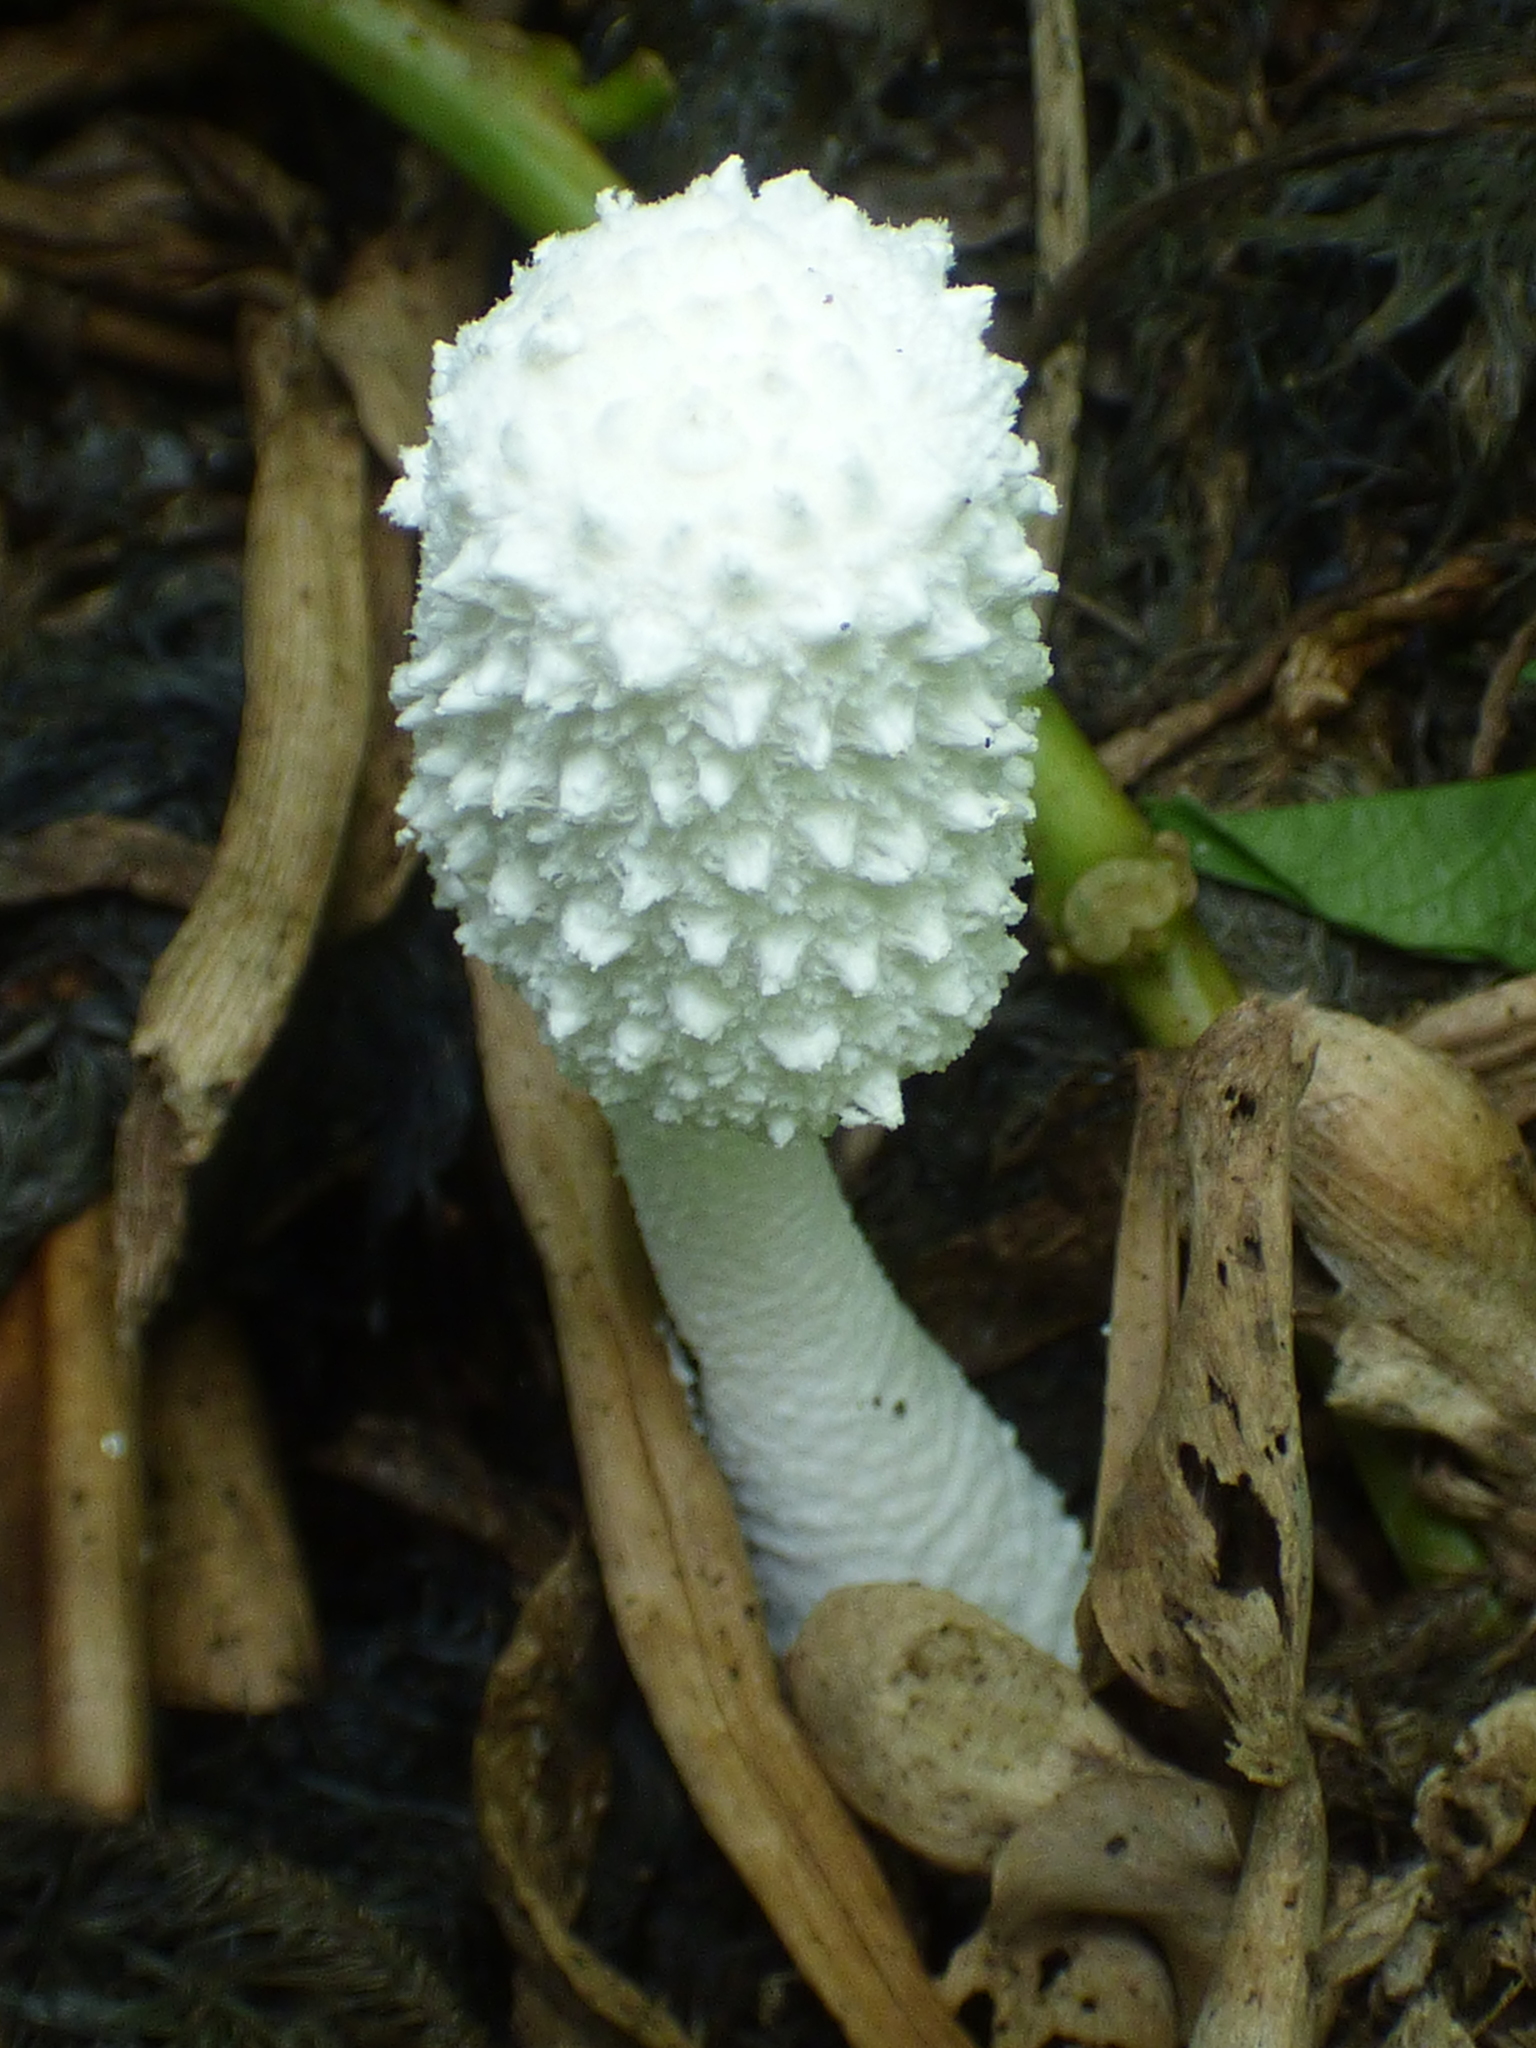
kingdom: Fungi
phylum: Basidiomycota
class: Agaricomycetes
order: Agaricales
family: Agaricaceae
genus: Leucocoprinus
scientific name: Leucocoprinus cretaceus
